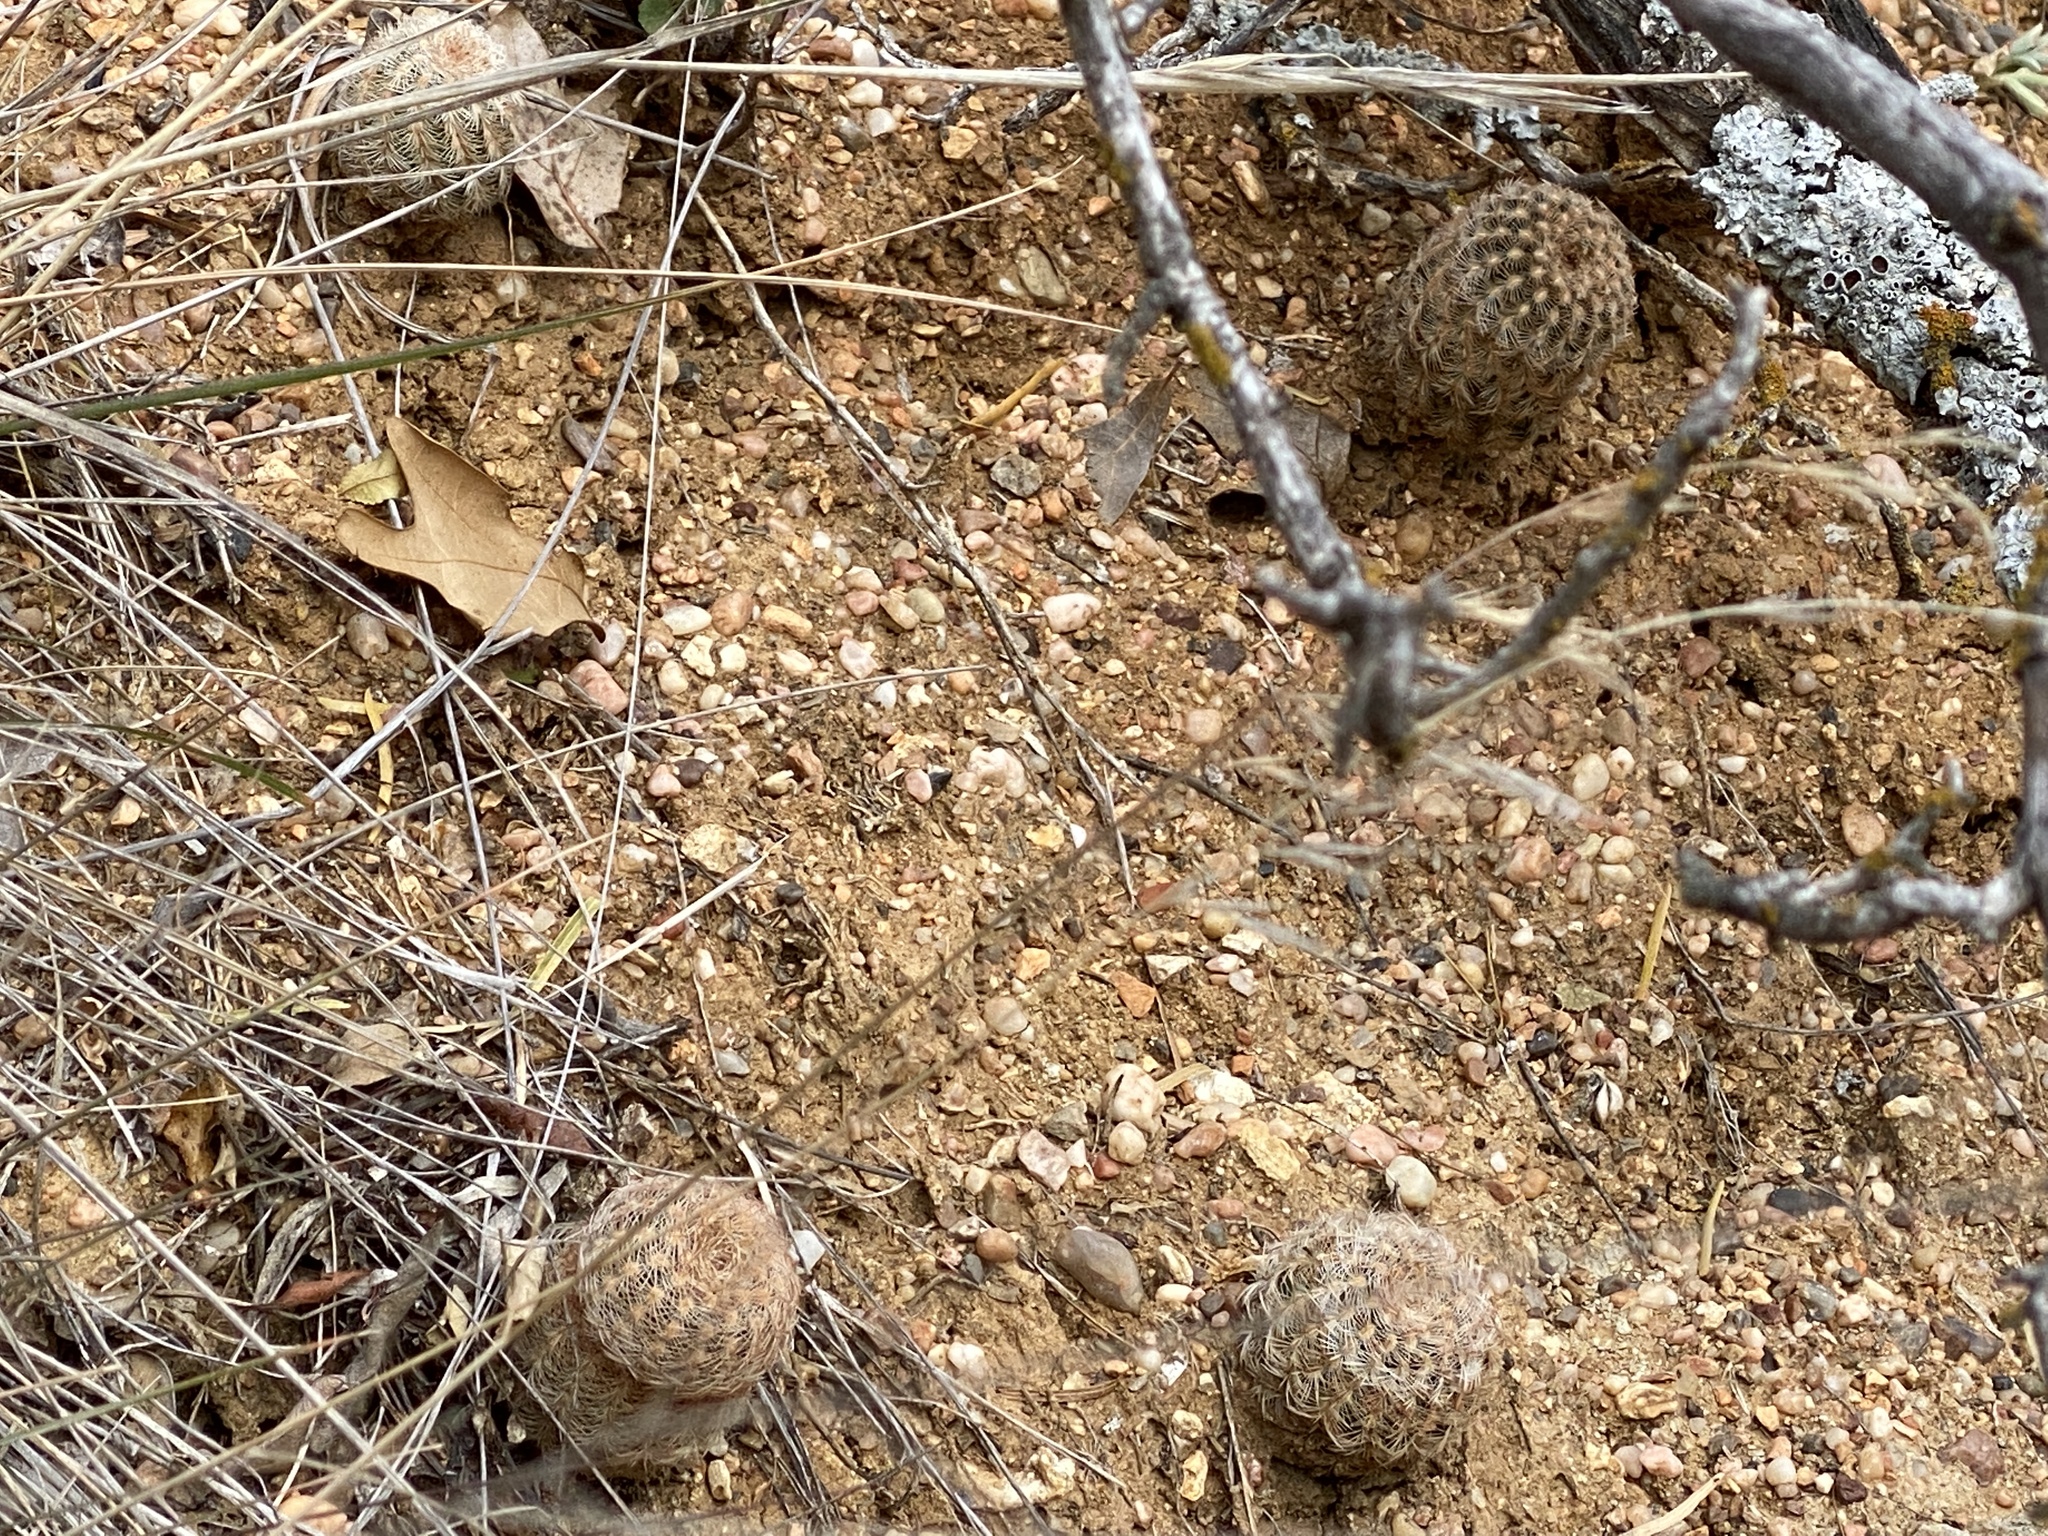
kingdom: Plantae
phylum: Tracheophyta
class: Magnoliopsida
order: Caryophyllales
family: Cactaceae
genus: Echinocereus
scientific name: Echinocereus reichenbachii
